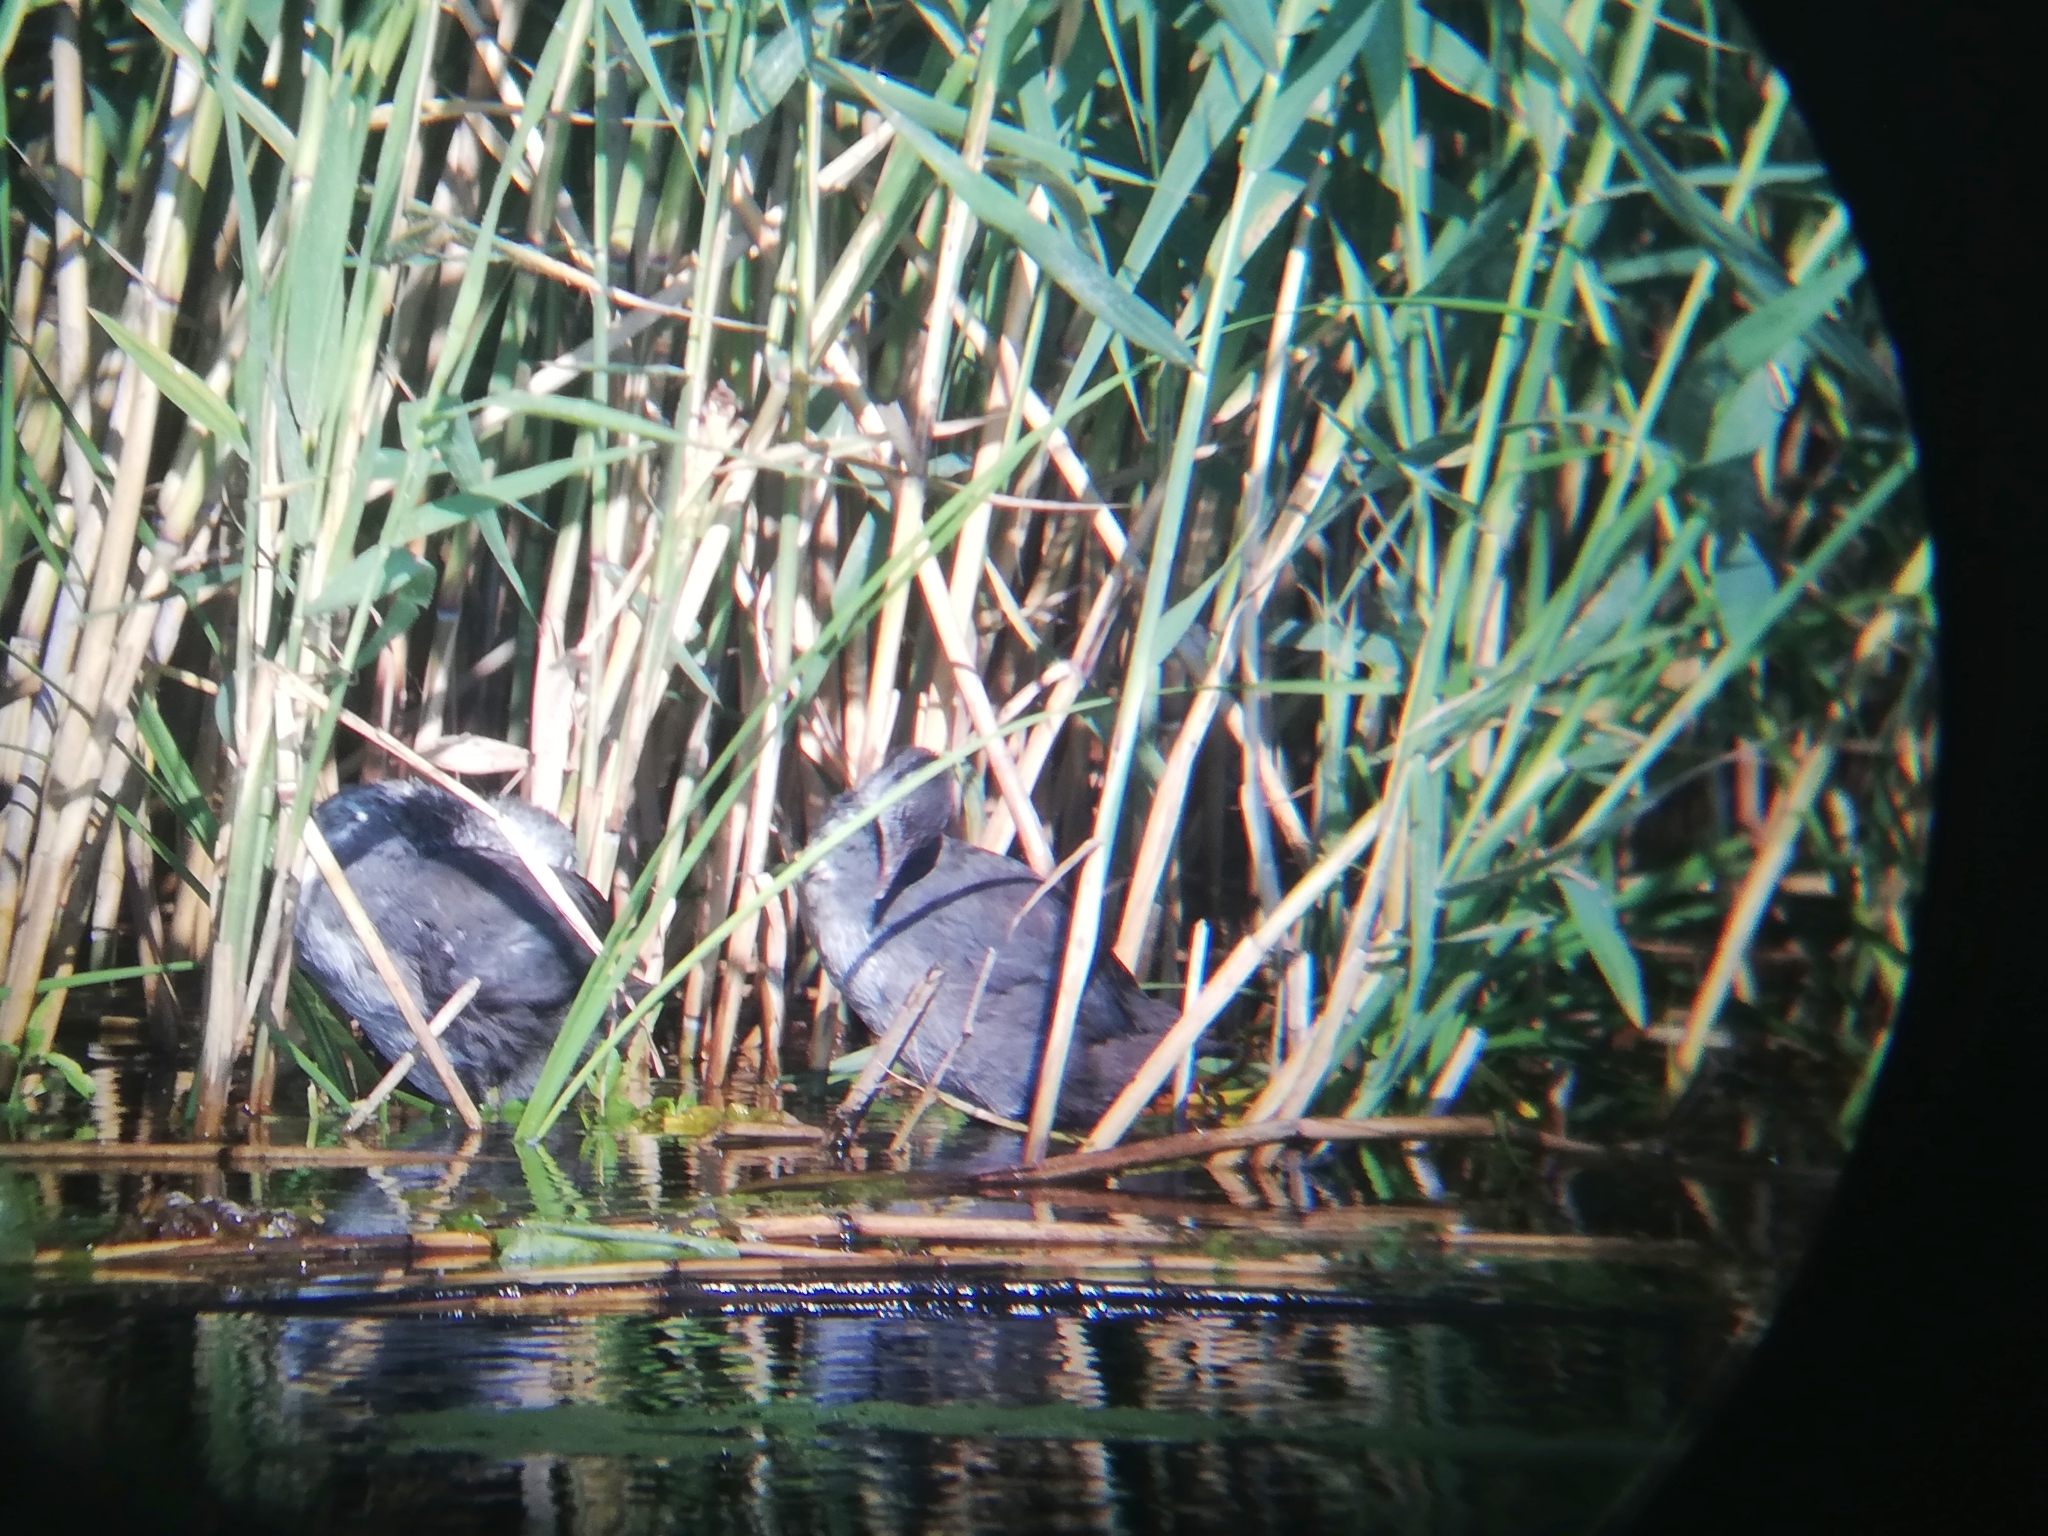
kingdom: Animalia
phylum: Chordata
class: Aves
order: Gruiformes
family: Rallidae
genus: Fulica
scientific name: Fulica atra
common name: Eurasian coot
